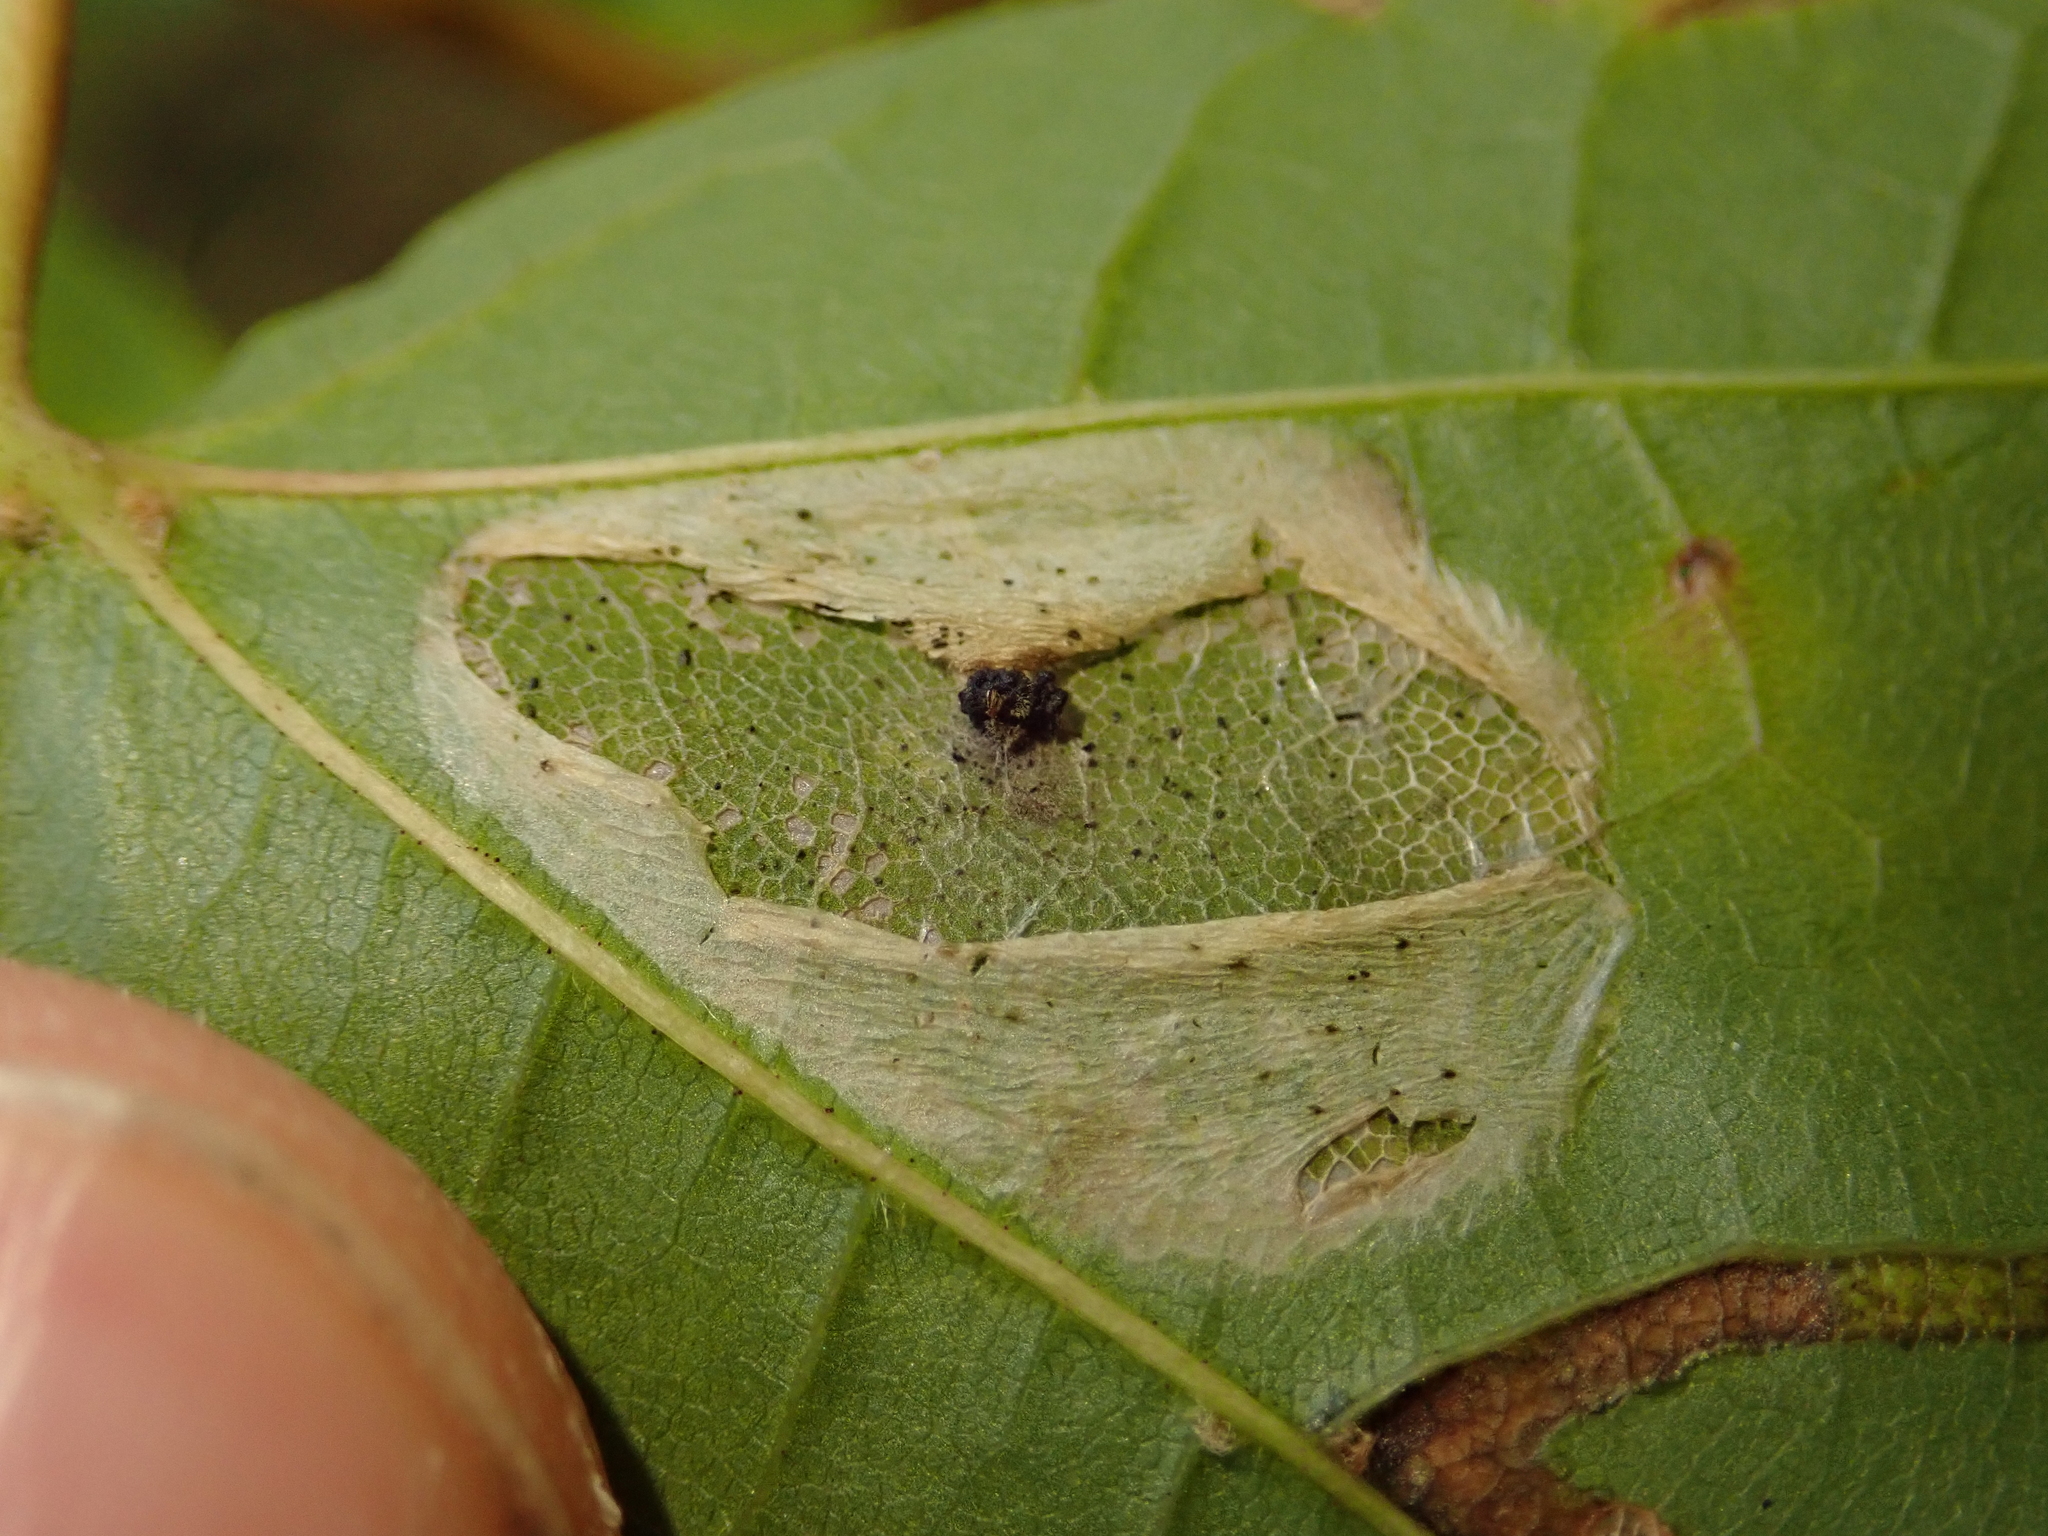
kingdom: Animalia
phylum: Arthropoda
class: Insecta
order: Lepidoptera
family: Gracillariidae
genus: Phyllonorycter
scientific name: Phyllonorycter joannisi
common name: White-bodied midget
